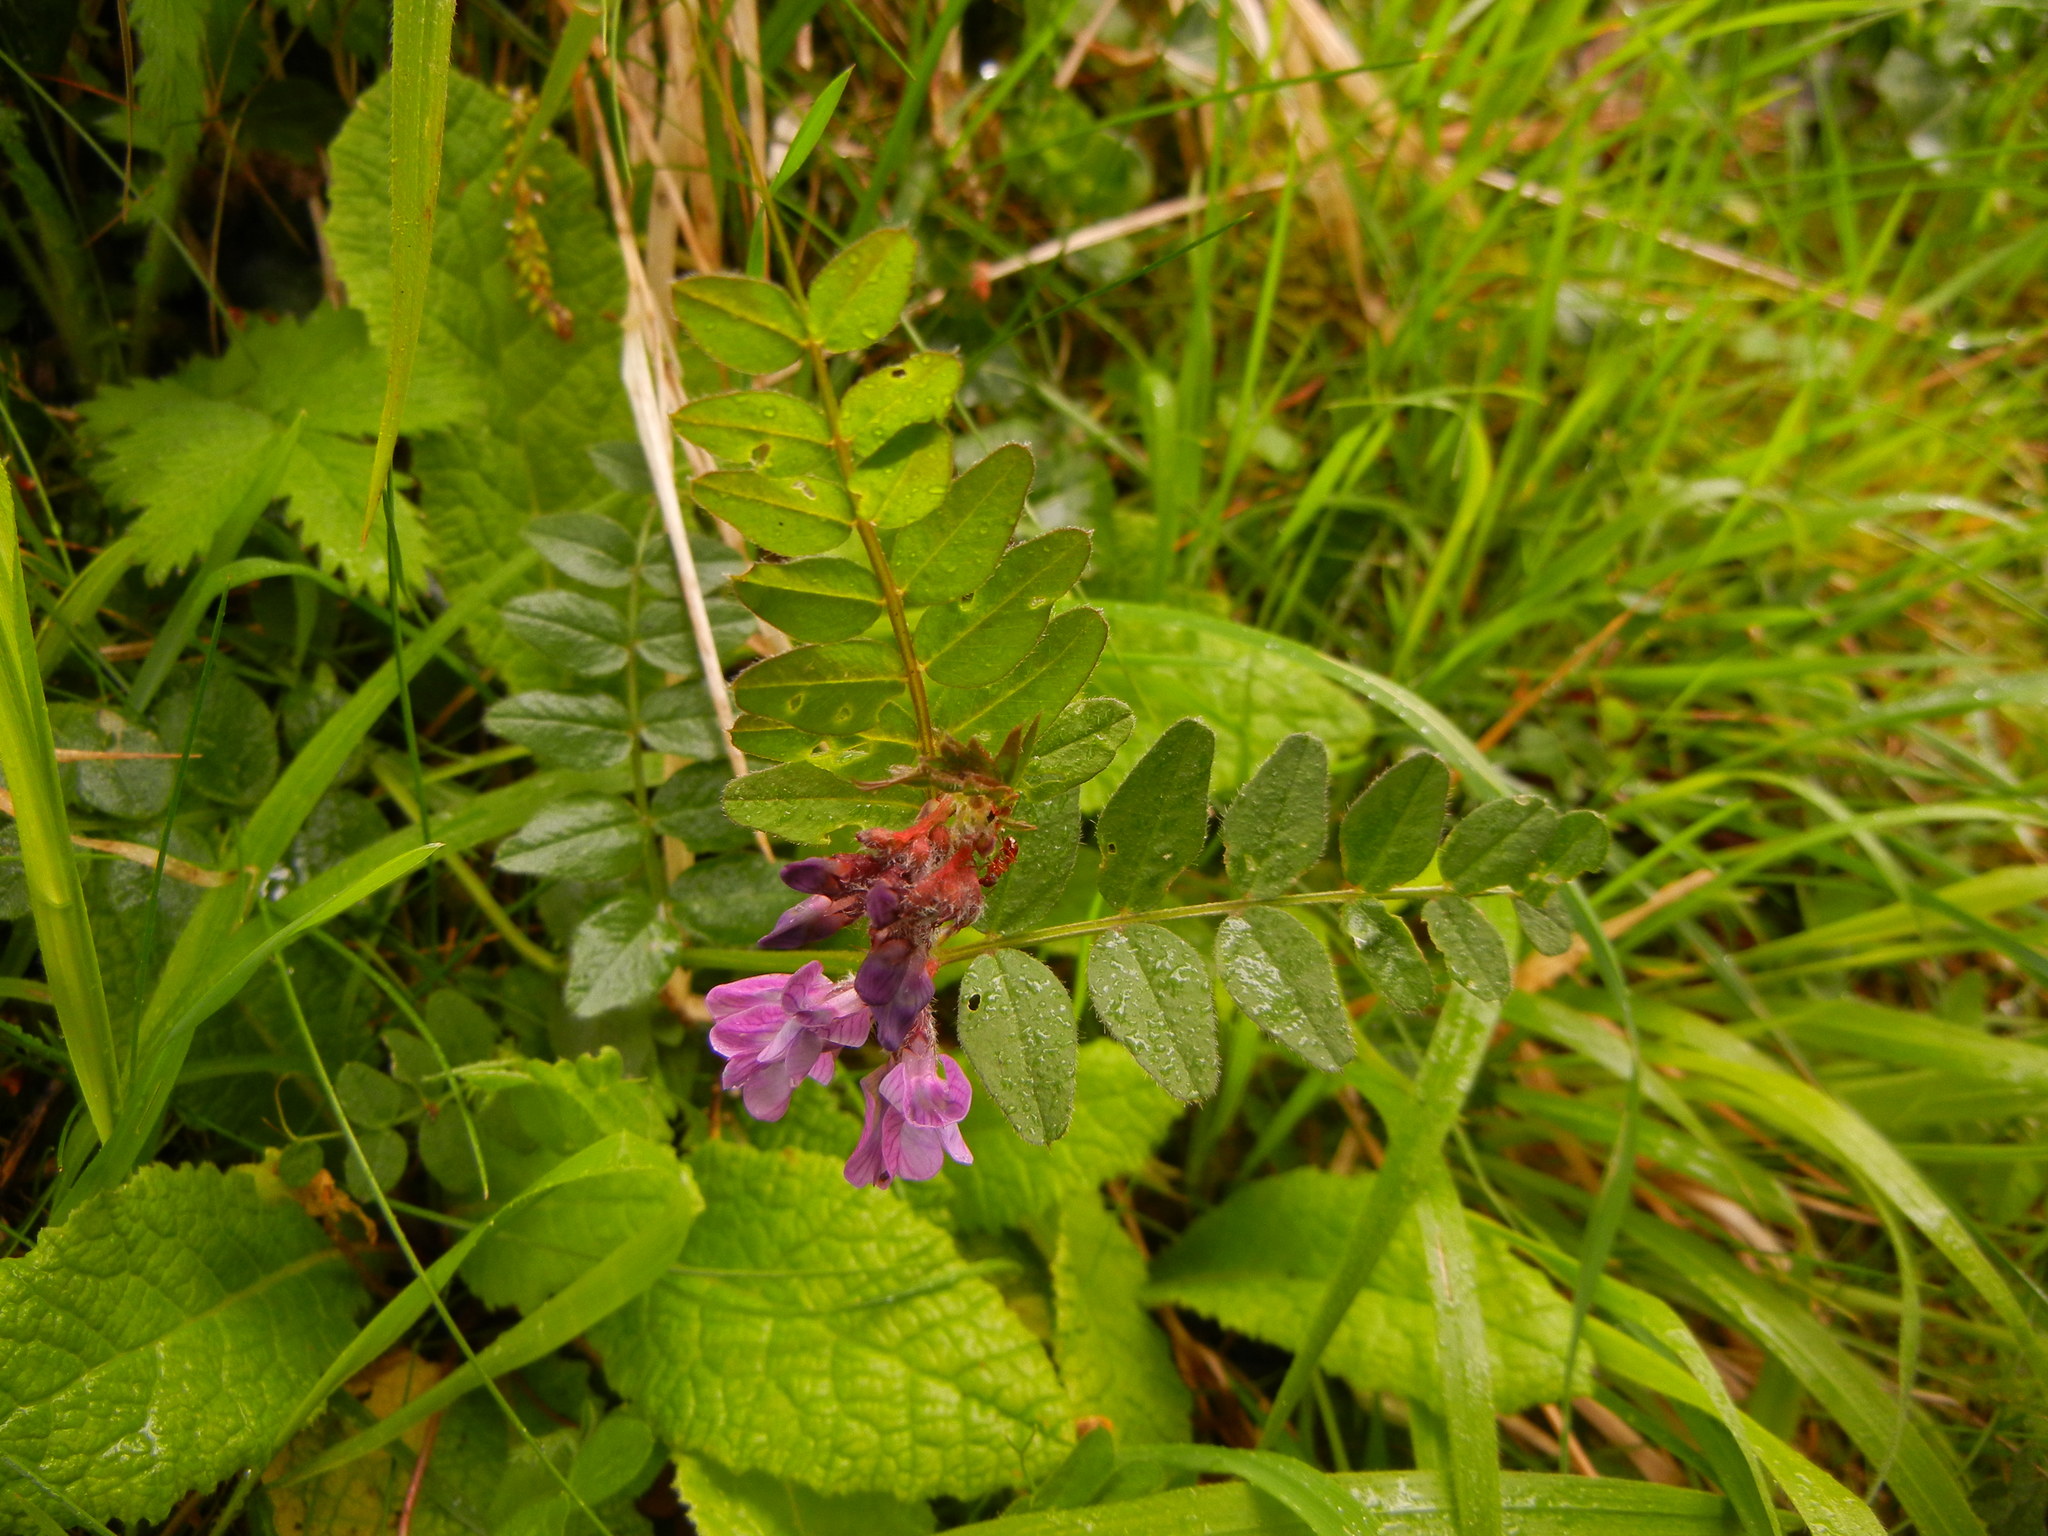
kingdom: Plantae
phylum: Tracheophyta
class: Magnoliopsida
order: Fabales
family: Fabaceae
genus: Vicia
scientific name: Vicia sepium
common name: Bush vetch
